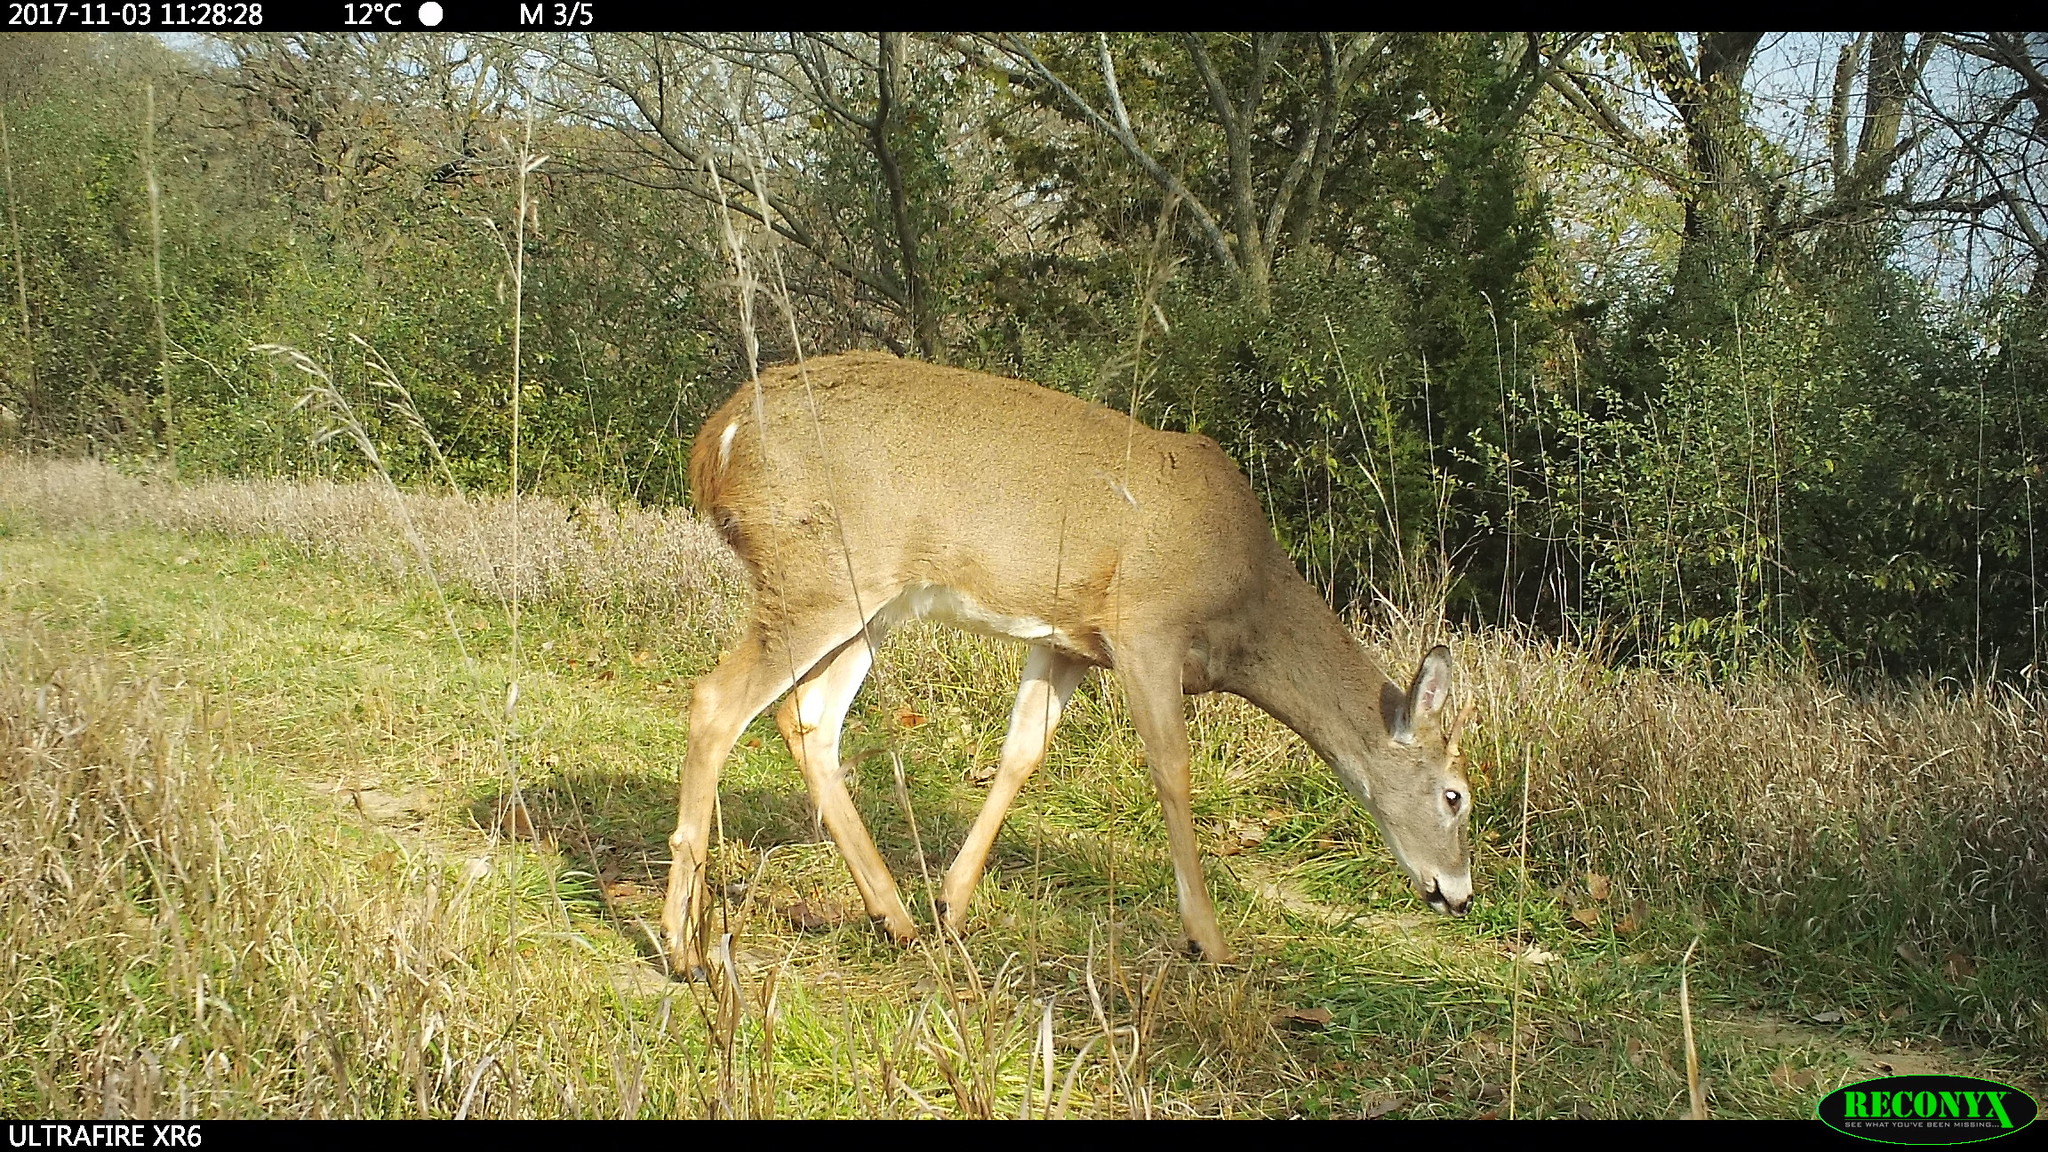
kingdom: Animalia
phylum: Chordata
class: Mammalia
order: Artiodactyla
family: Cervidae
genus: Odocoileus
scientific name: Odocoileus virginianus
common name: White-tailed deer
